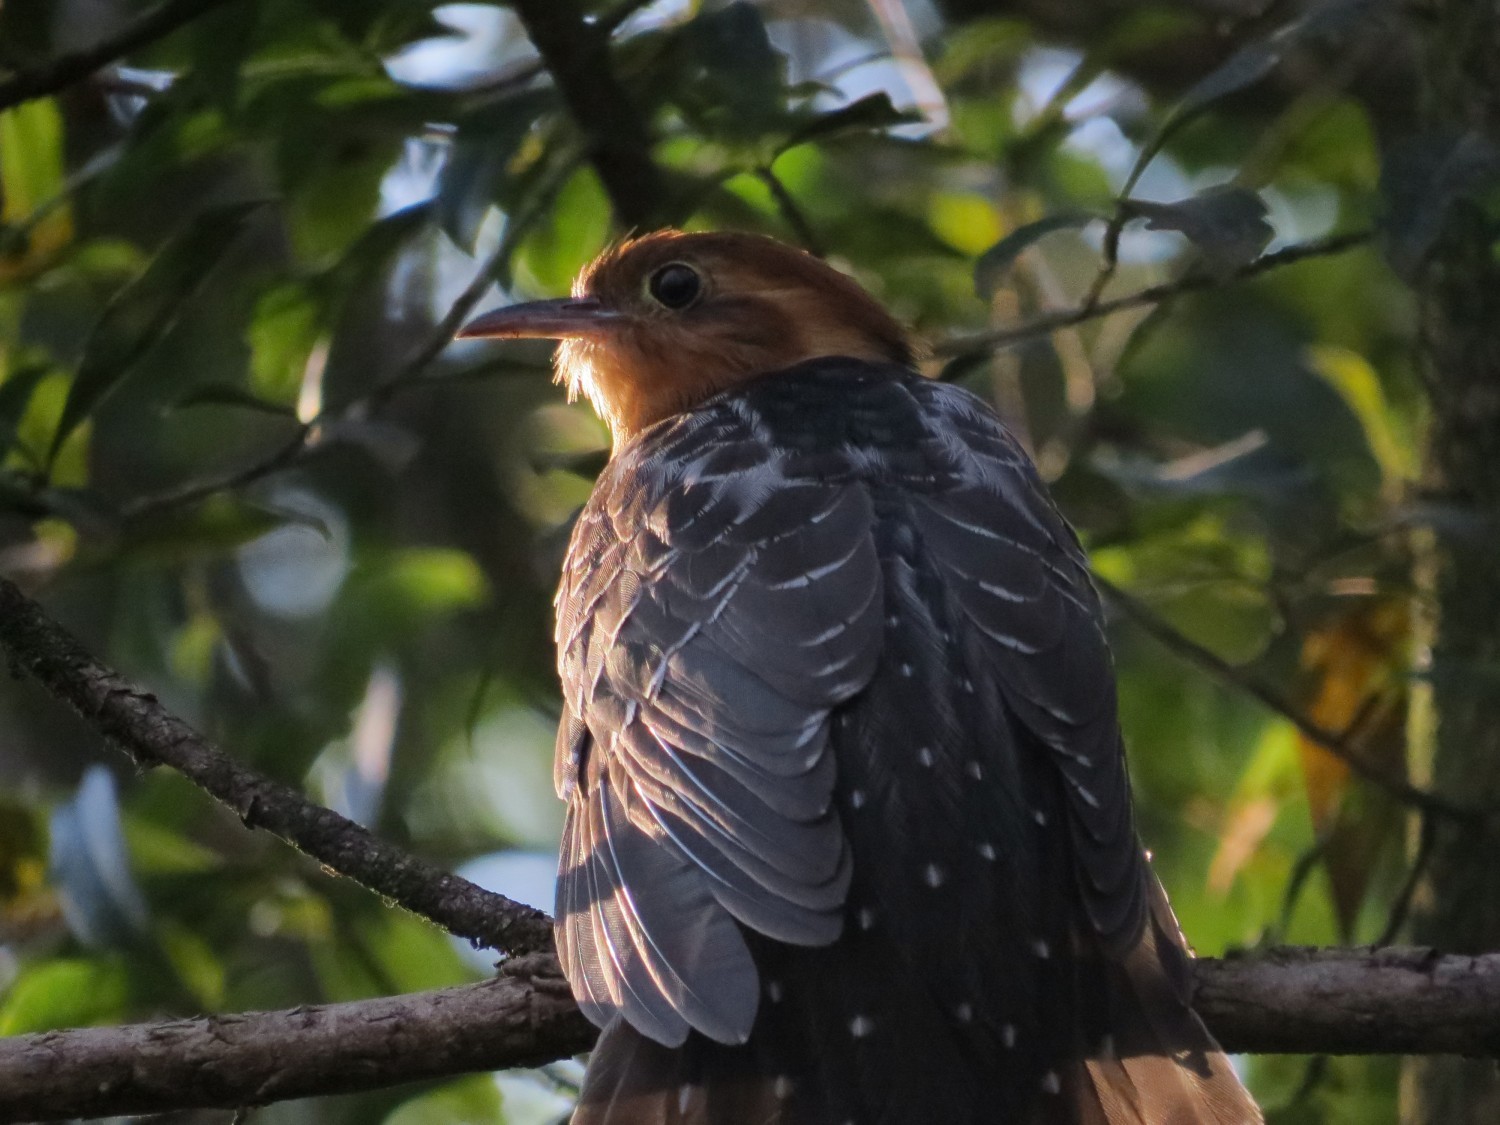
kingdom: Animalia
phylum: Chordata
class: Aves
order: Cuculiformes
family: Cuculidae
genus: Dromococcyx
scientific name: Dromococcyx pavoninus
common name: Pavonine cuckoo
